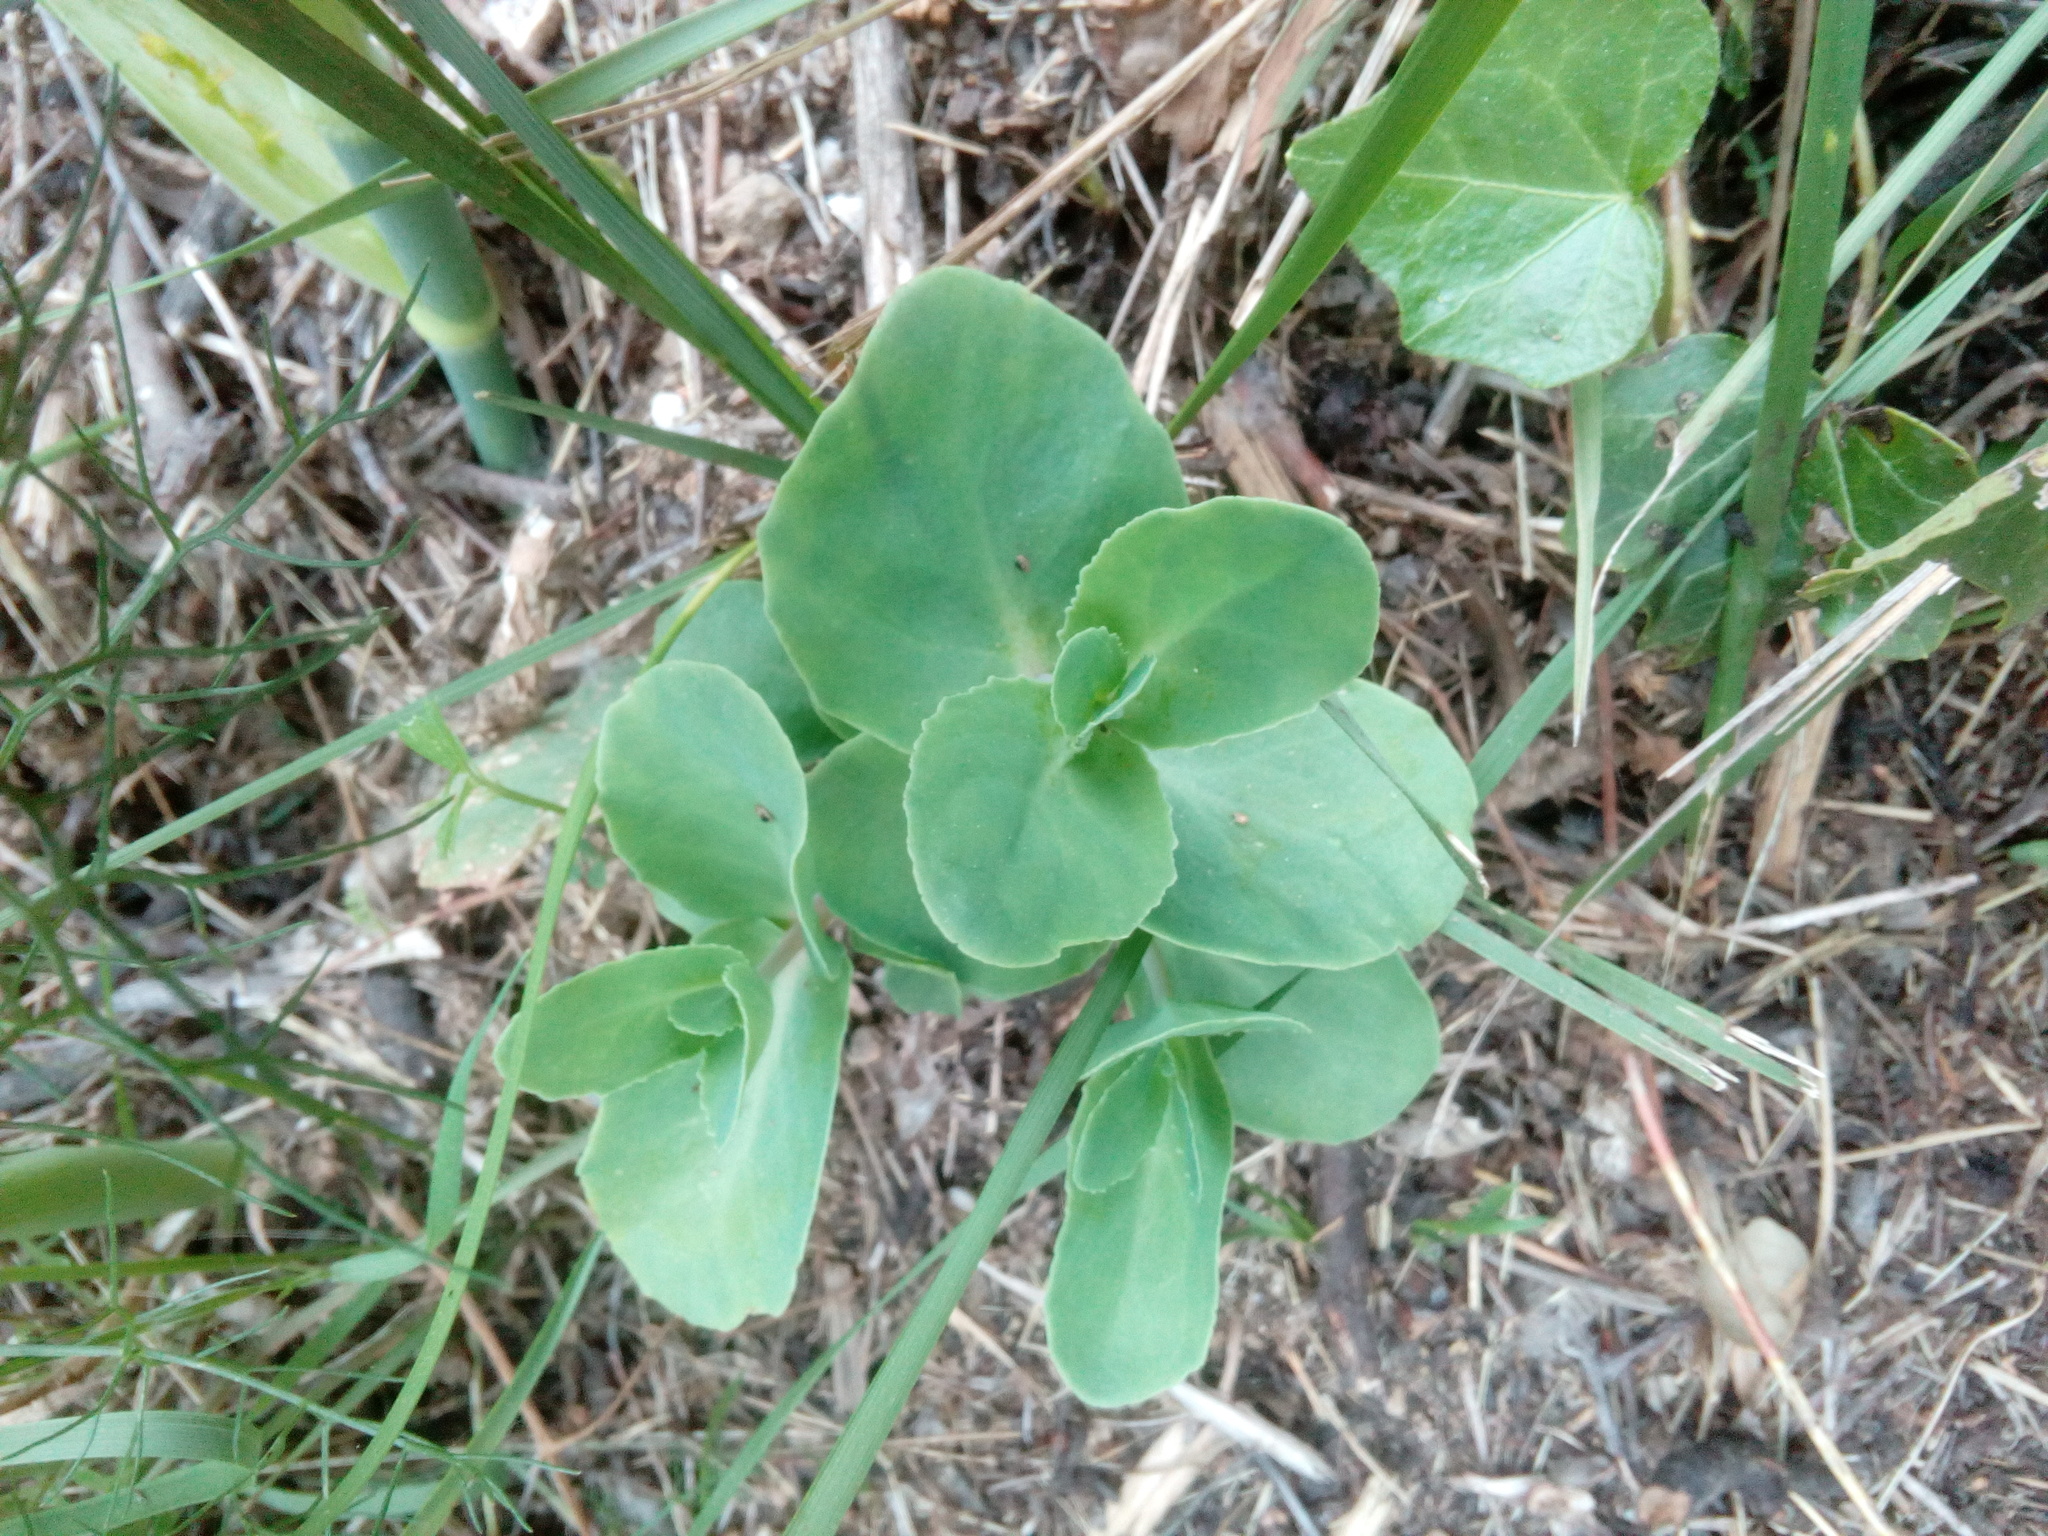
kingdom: Plantae
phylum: Tracheophyta
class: Magnoliopsida
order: Saxifragales
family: Crassulaceae
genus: Hylotelephium
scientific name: Hylotelephium maximum
